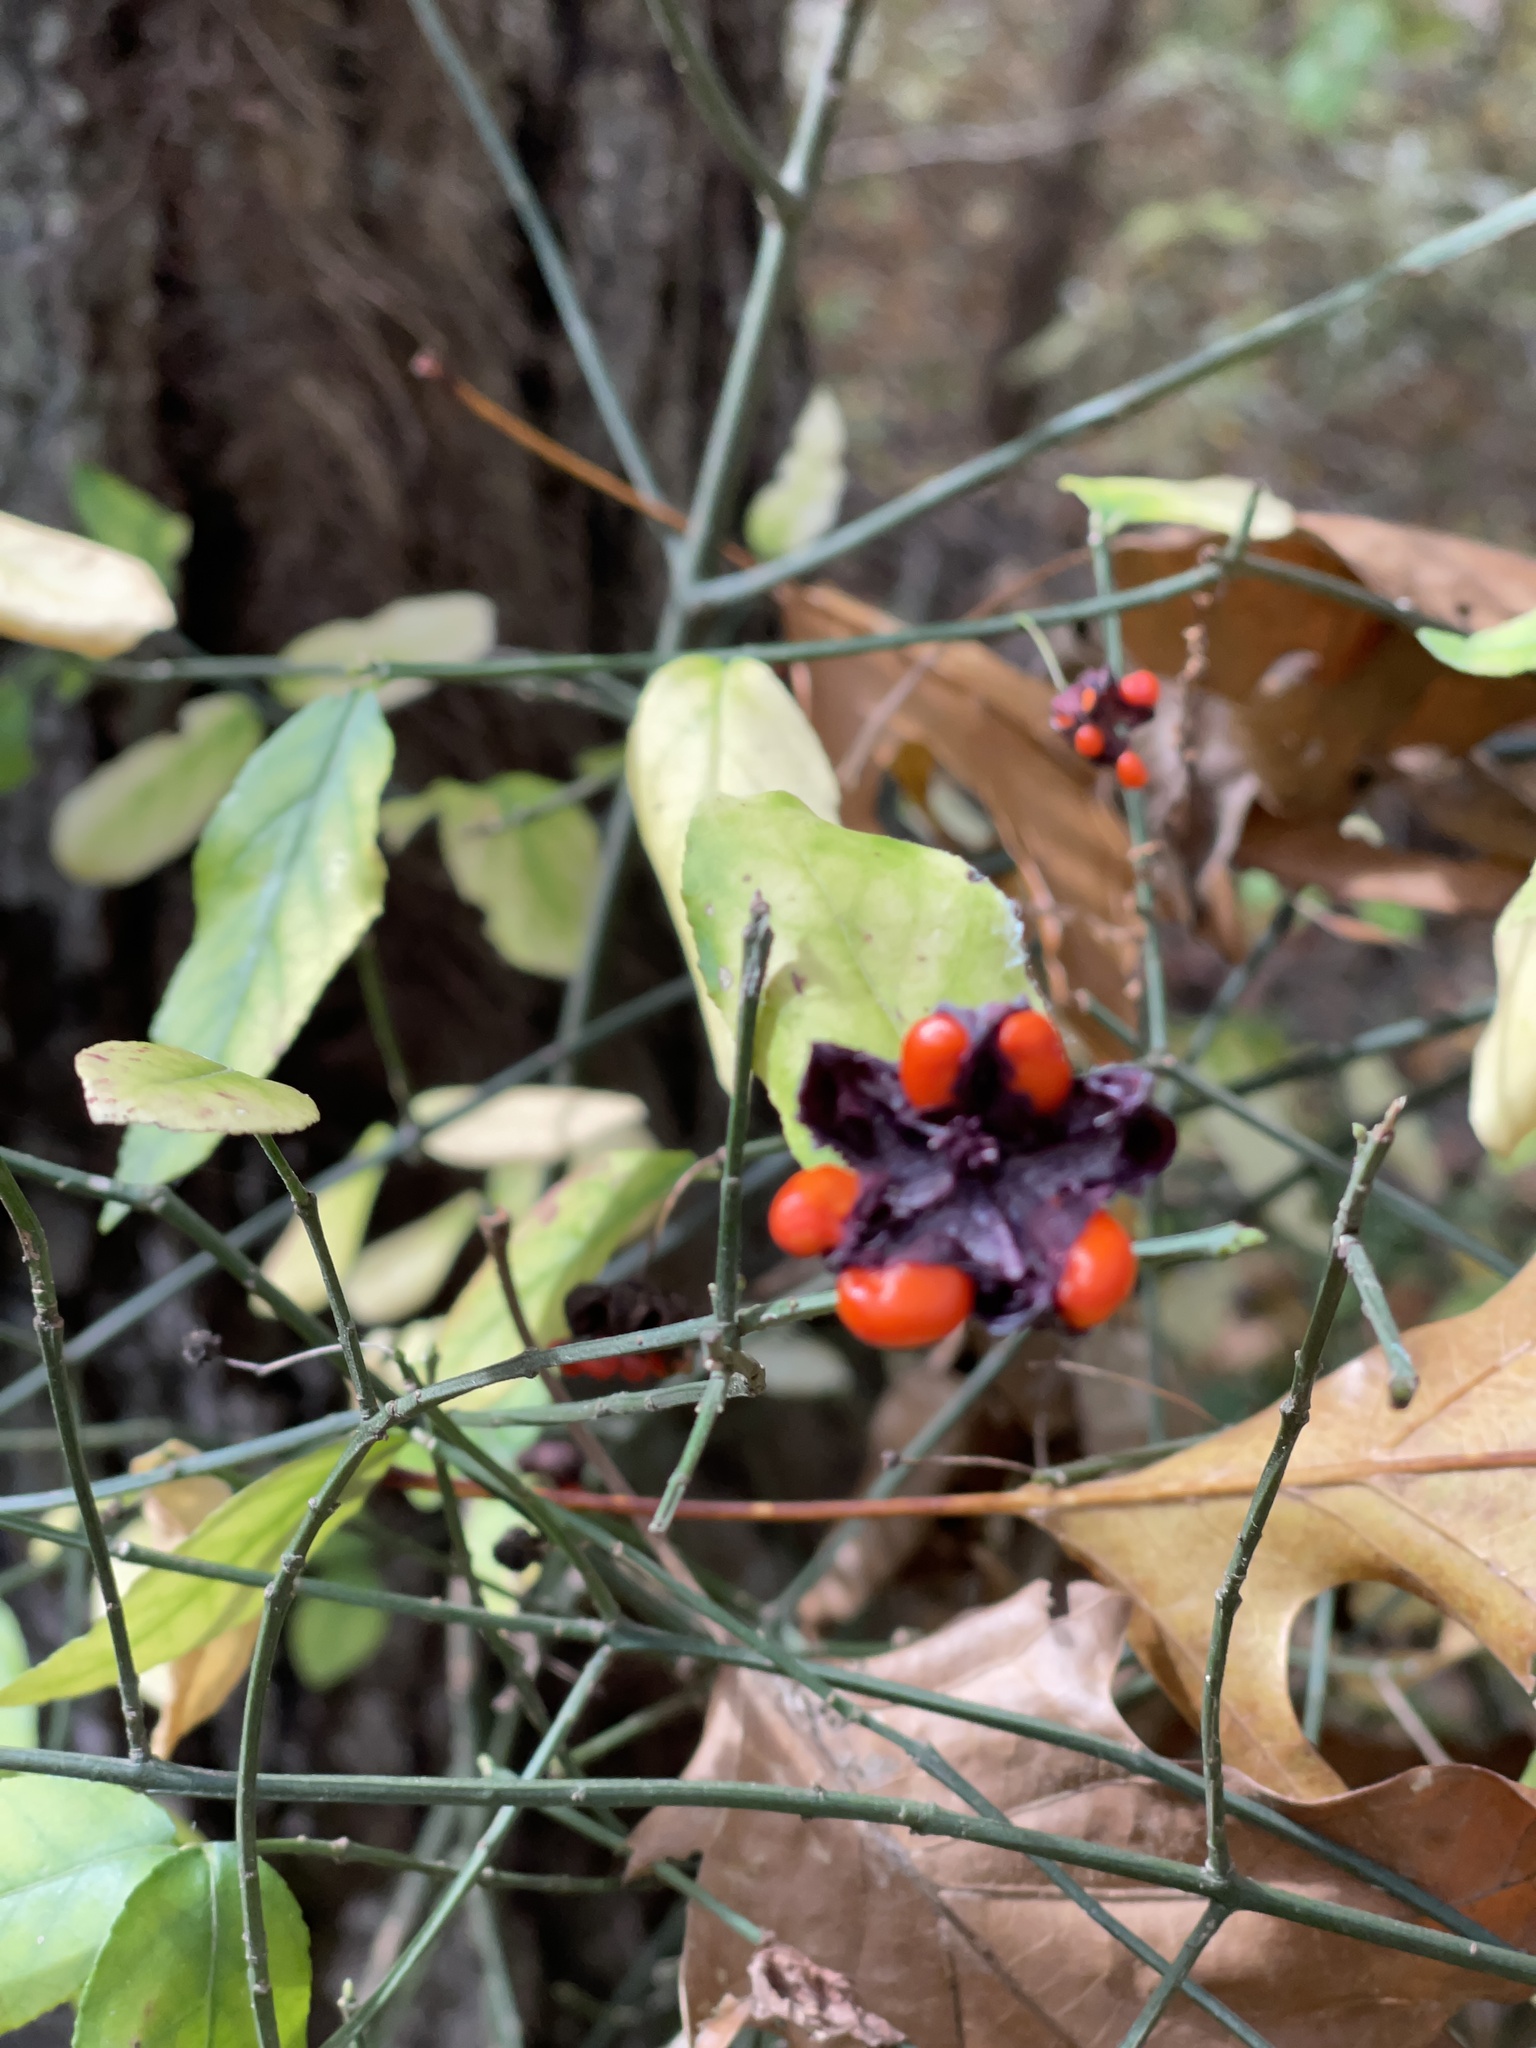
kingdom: Plantae
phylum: Tracheophyta
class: Magnoliopsida
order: Celastrales
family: Celastraceae
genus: Euonymus
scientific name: Euonymus americanus
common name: Bursting-heart
